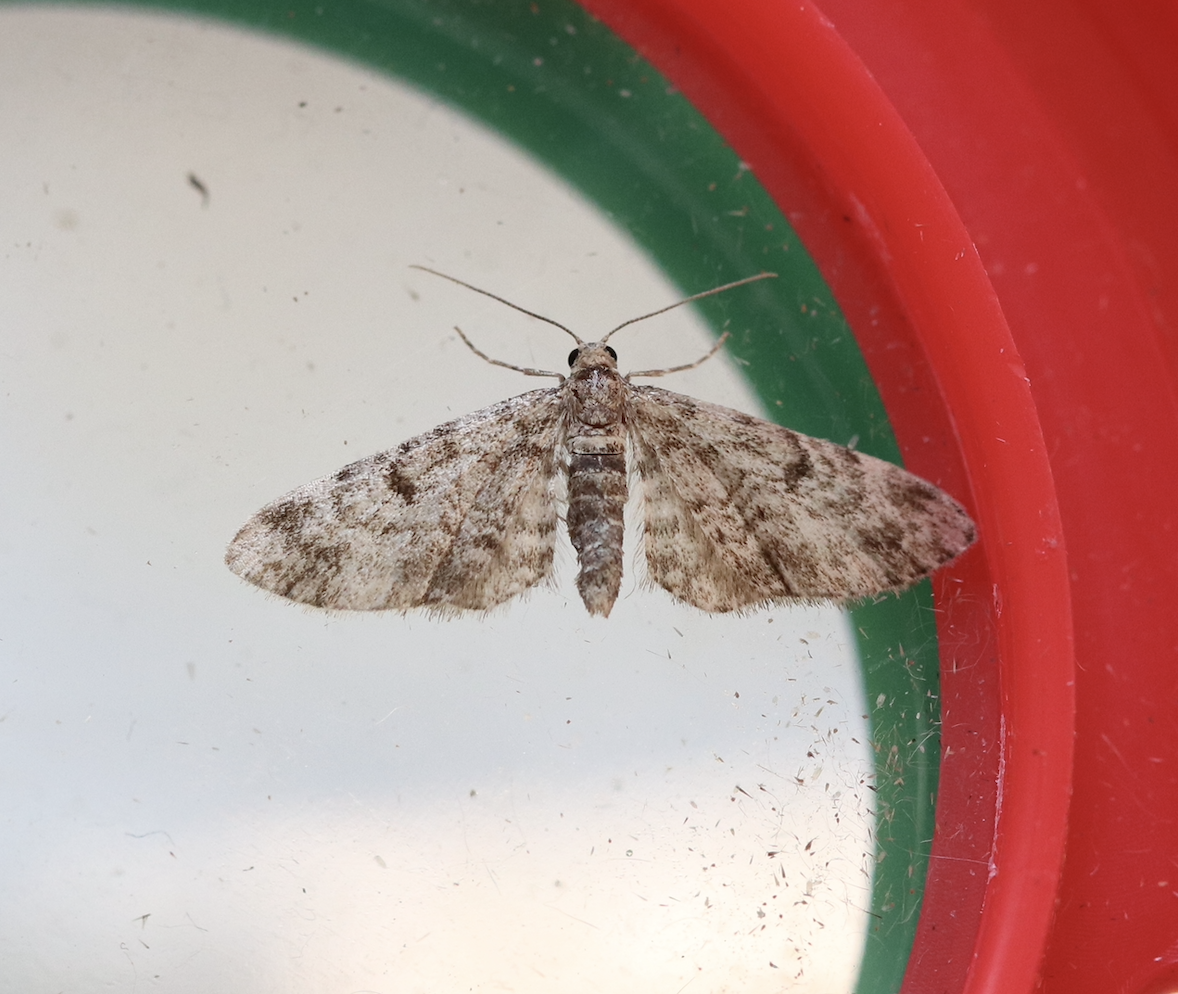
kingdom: Animalia
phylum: Arthropoda
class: Insecta
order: Lepidoptera
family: Geometridae
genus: Eupithecia
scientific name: Eupithecia tantillaria
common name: Dwarf pug
